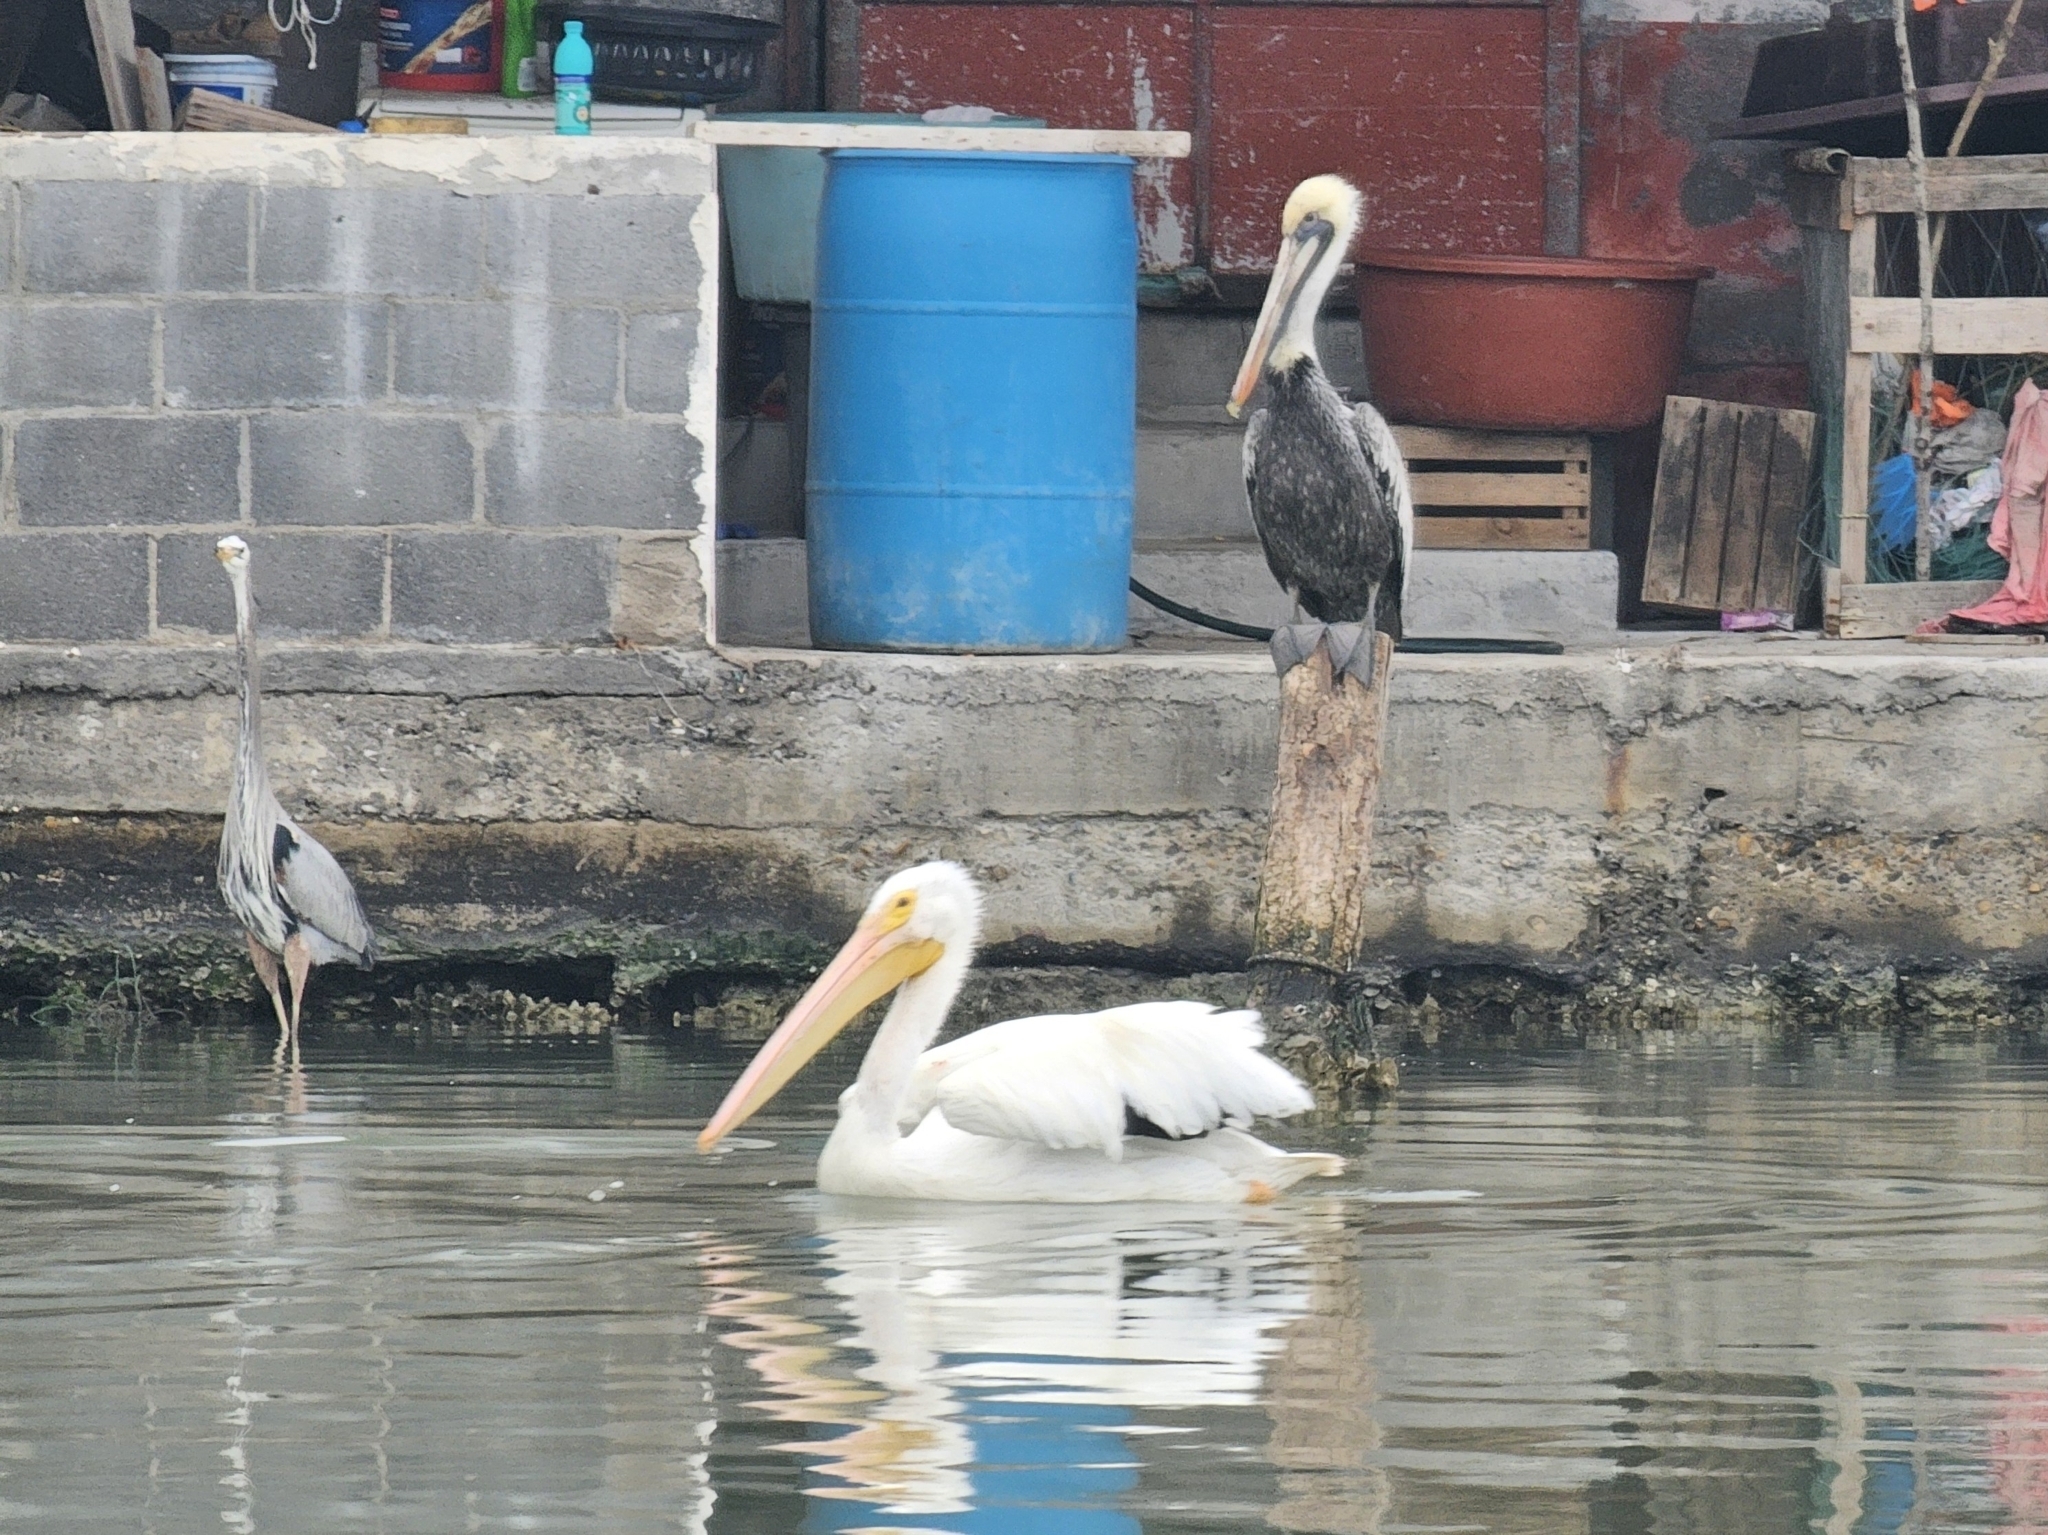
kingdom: Animalia
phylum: Chordata
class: Aves
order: Pelecaniformes
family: Pelecanidae
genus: Pelecanus
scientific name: Pelecanus erythrorhynchos
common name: American white pelican
